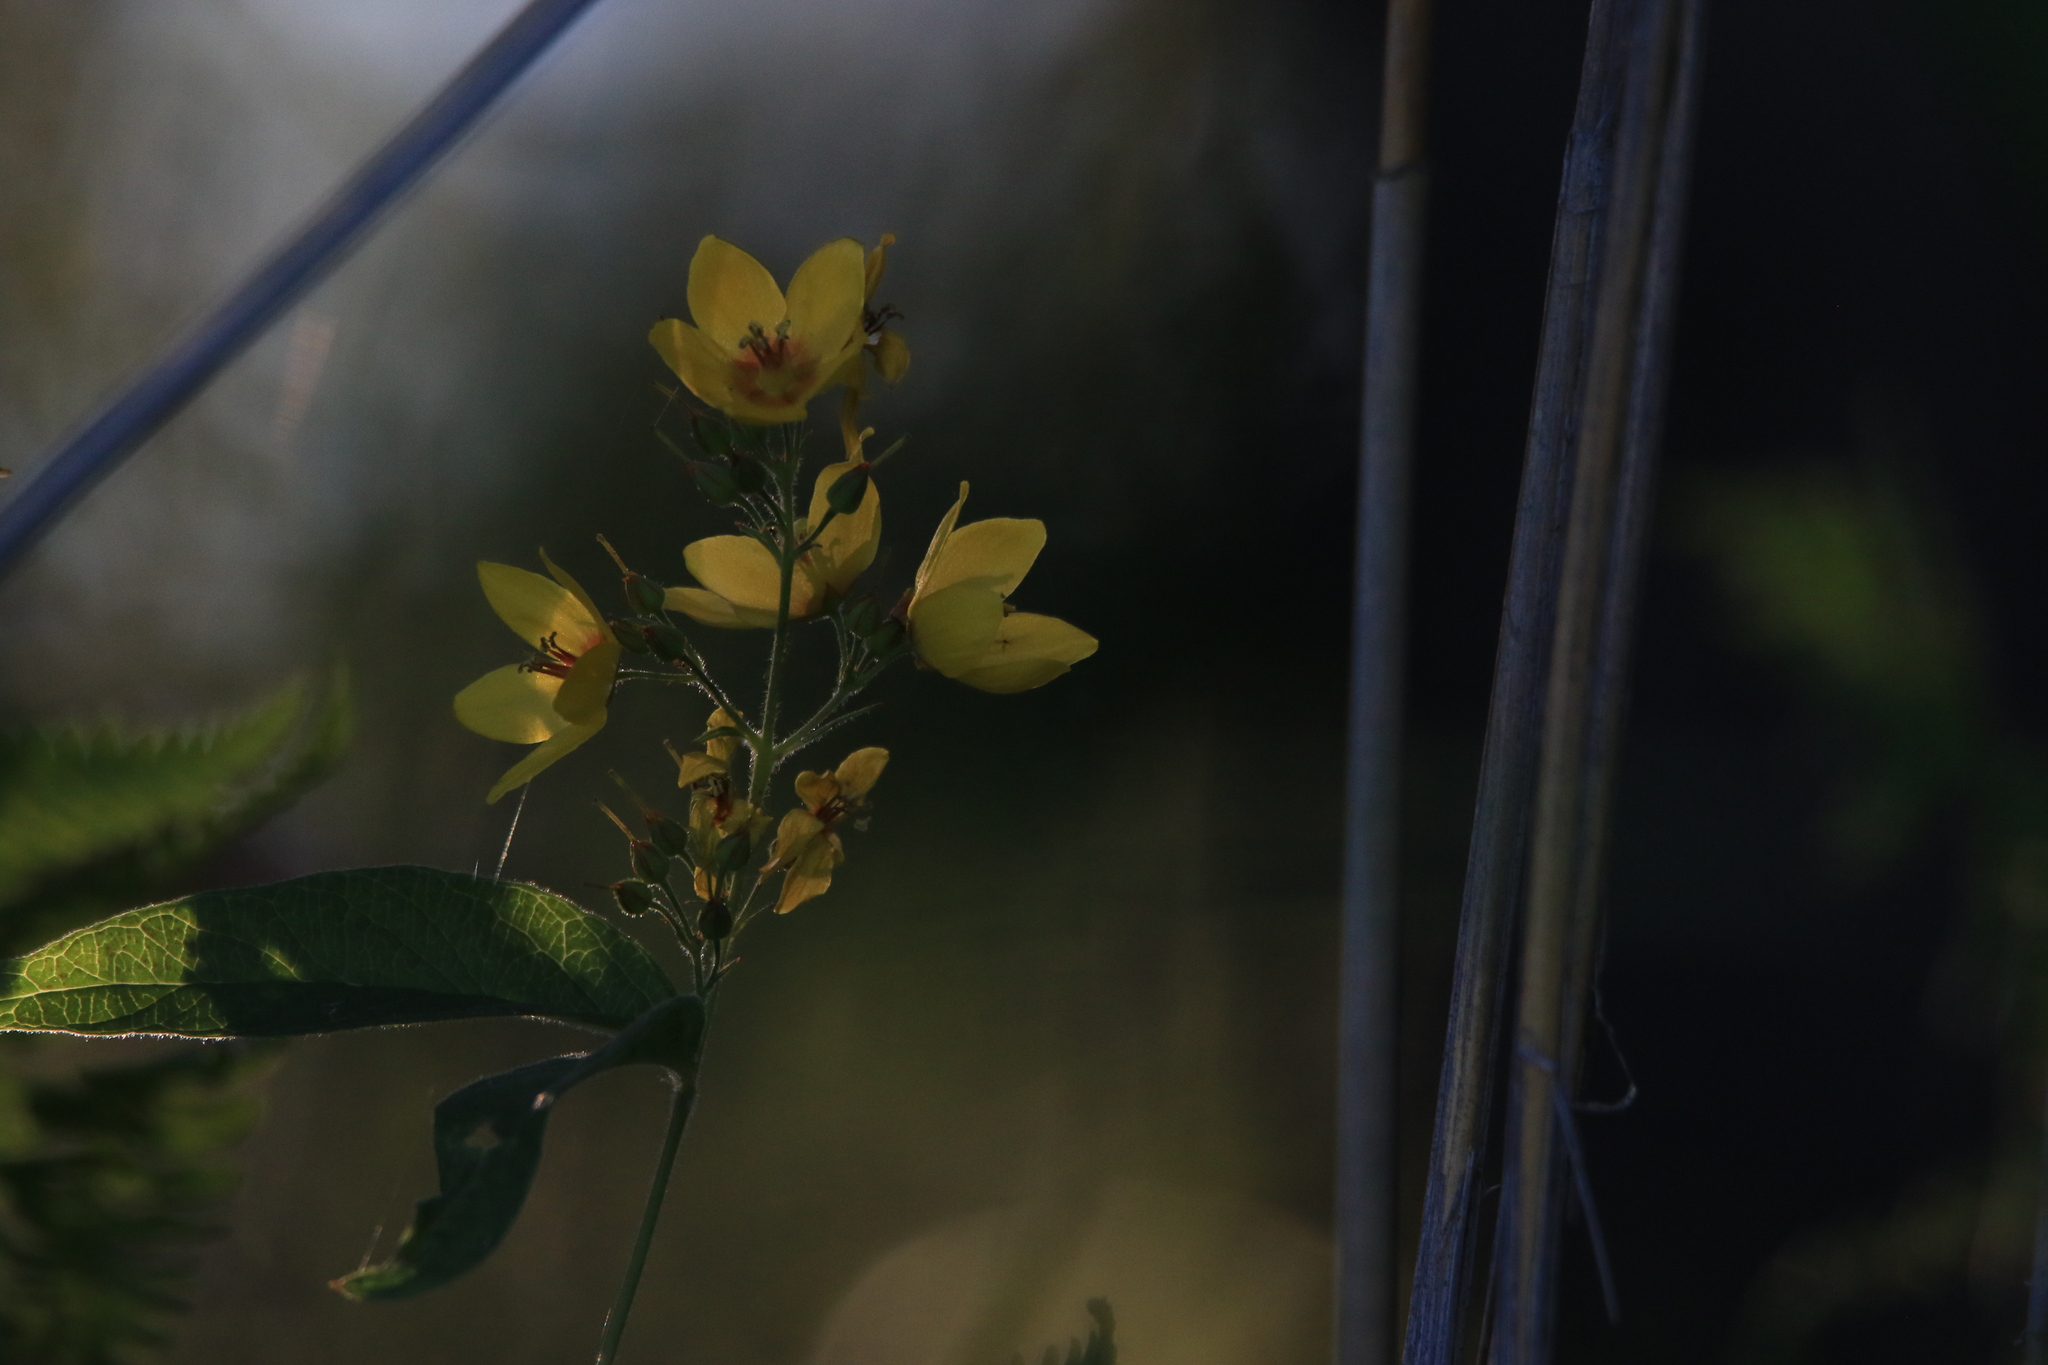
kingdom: Plantae
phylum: Tracheophyta
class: Magnoliopsida
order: Ericales
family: Primulaceae
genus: Lysimachia
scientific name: Lysimachia vulgaris
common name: Yellow loosestrife
